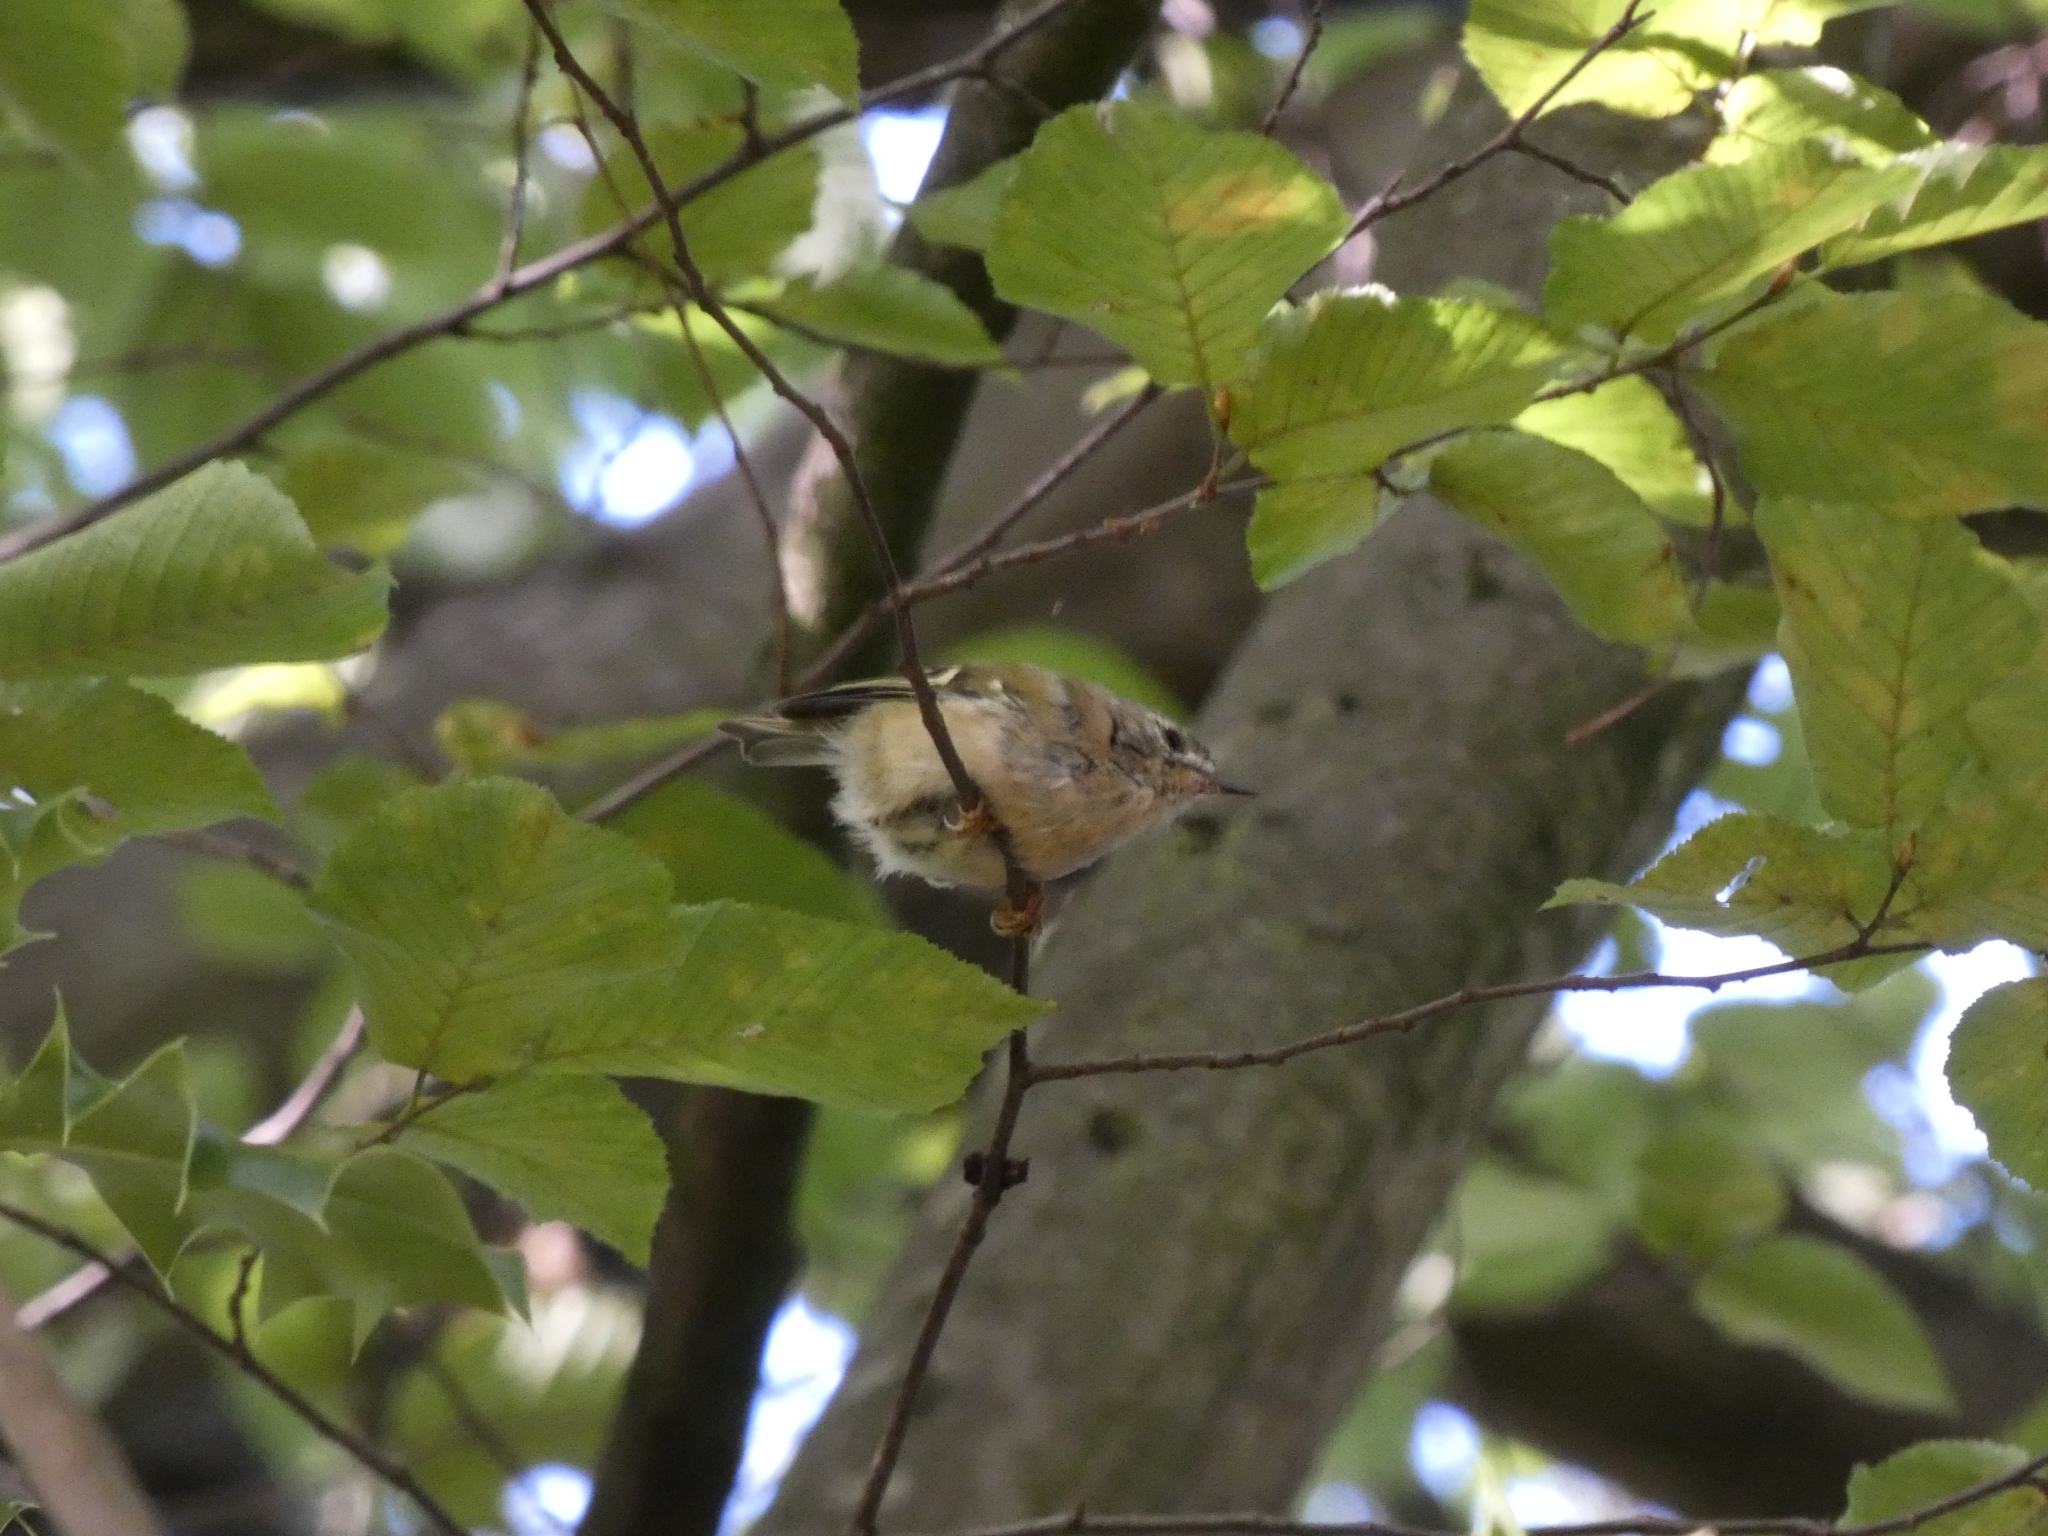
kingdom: Animalia
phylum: Chordata
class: Aves
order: Passeriformes
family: Regulidae
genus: Regulus
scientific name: Regulus regulus
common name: Goldcrest
